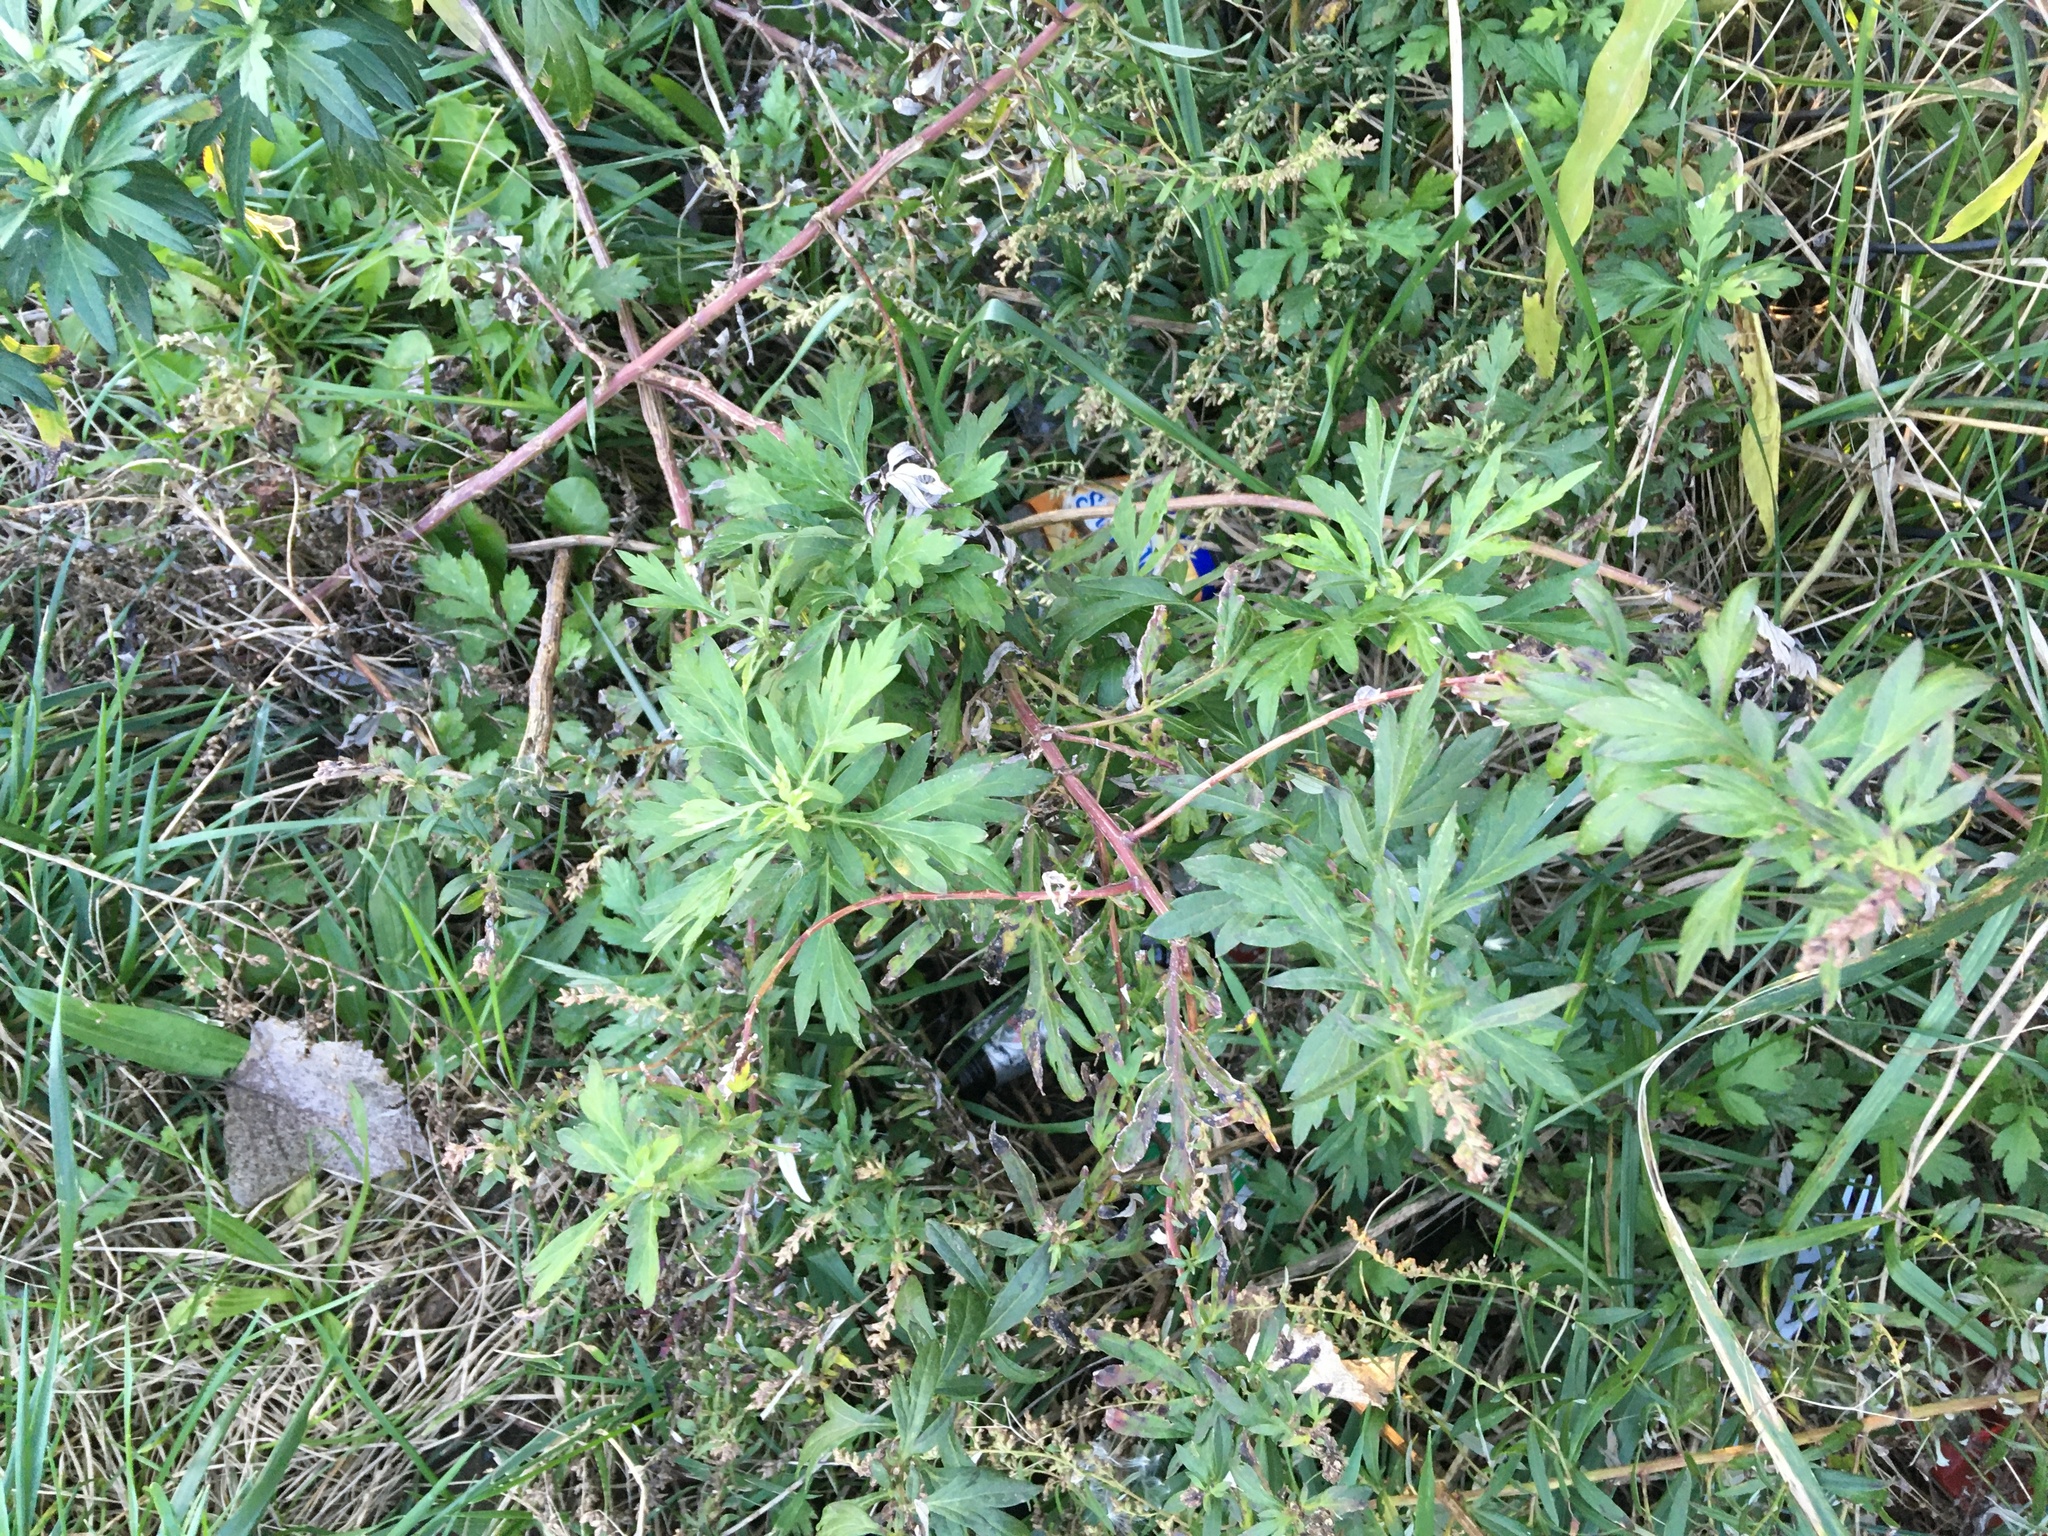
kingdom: Plantae
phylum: Tracheophyta
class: Magnoliopsida
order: Asterales
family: Asteraceae
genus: Artemisia
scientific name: Artemisia vulgaris
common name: Mugwort
